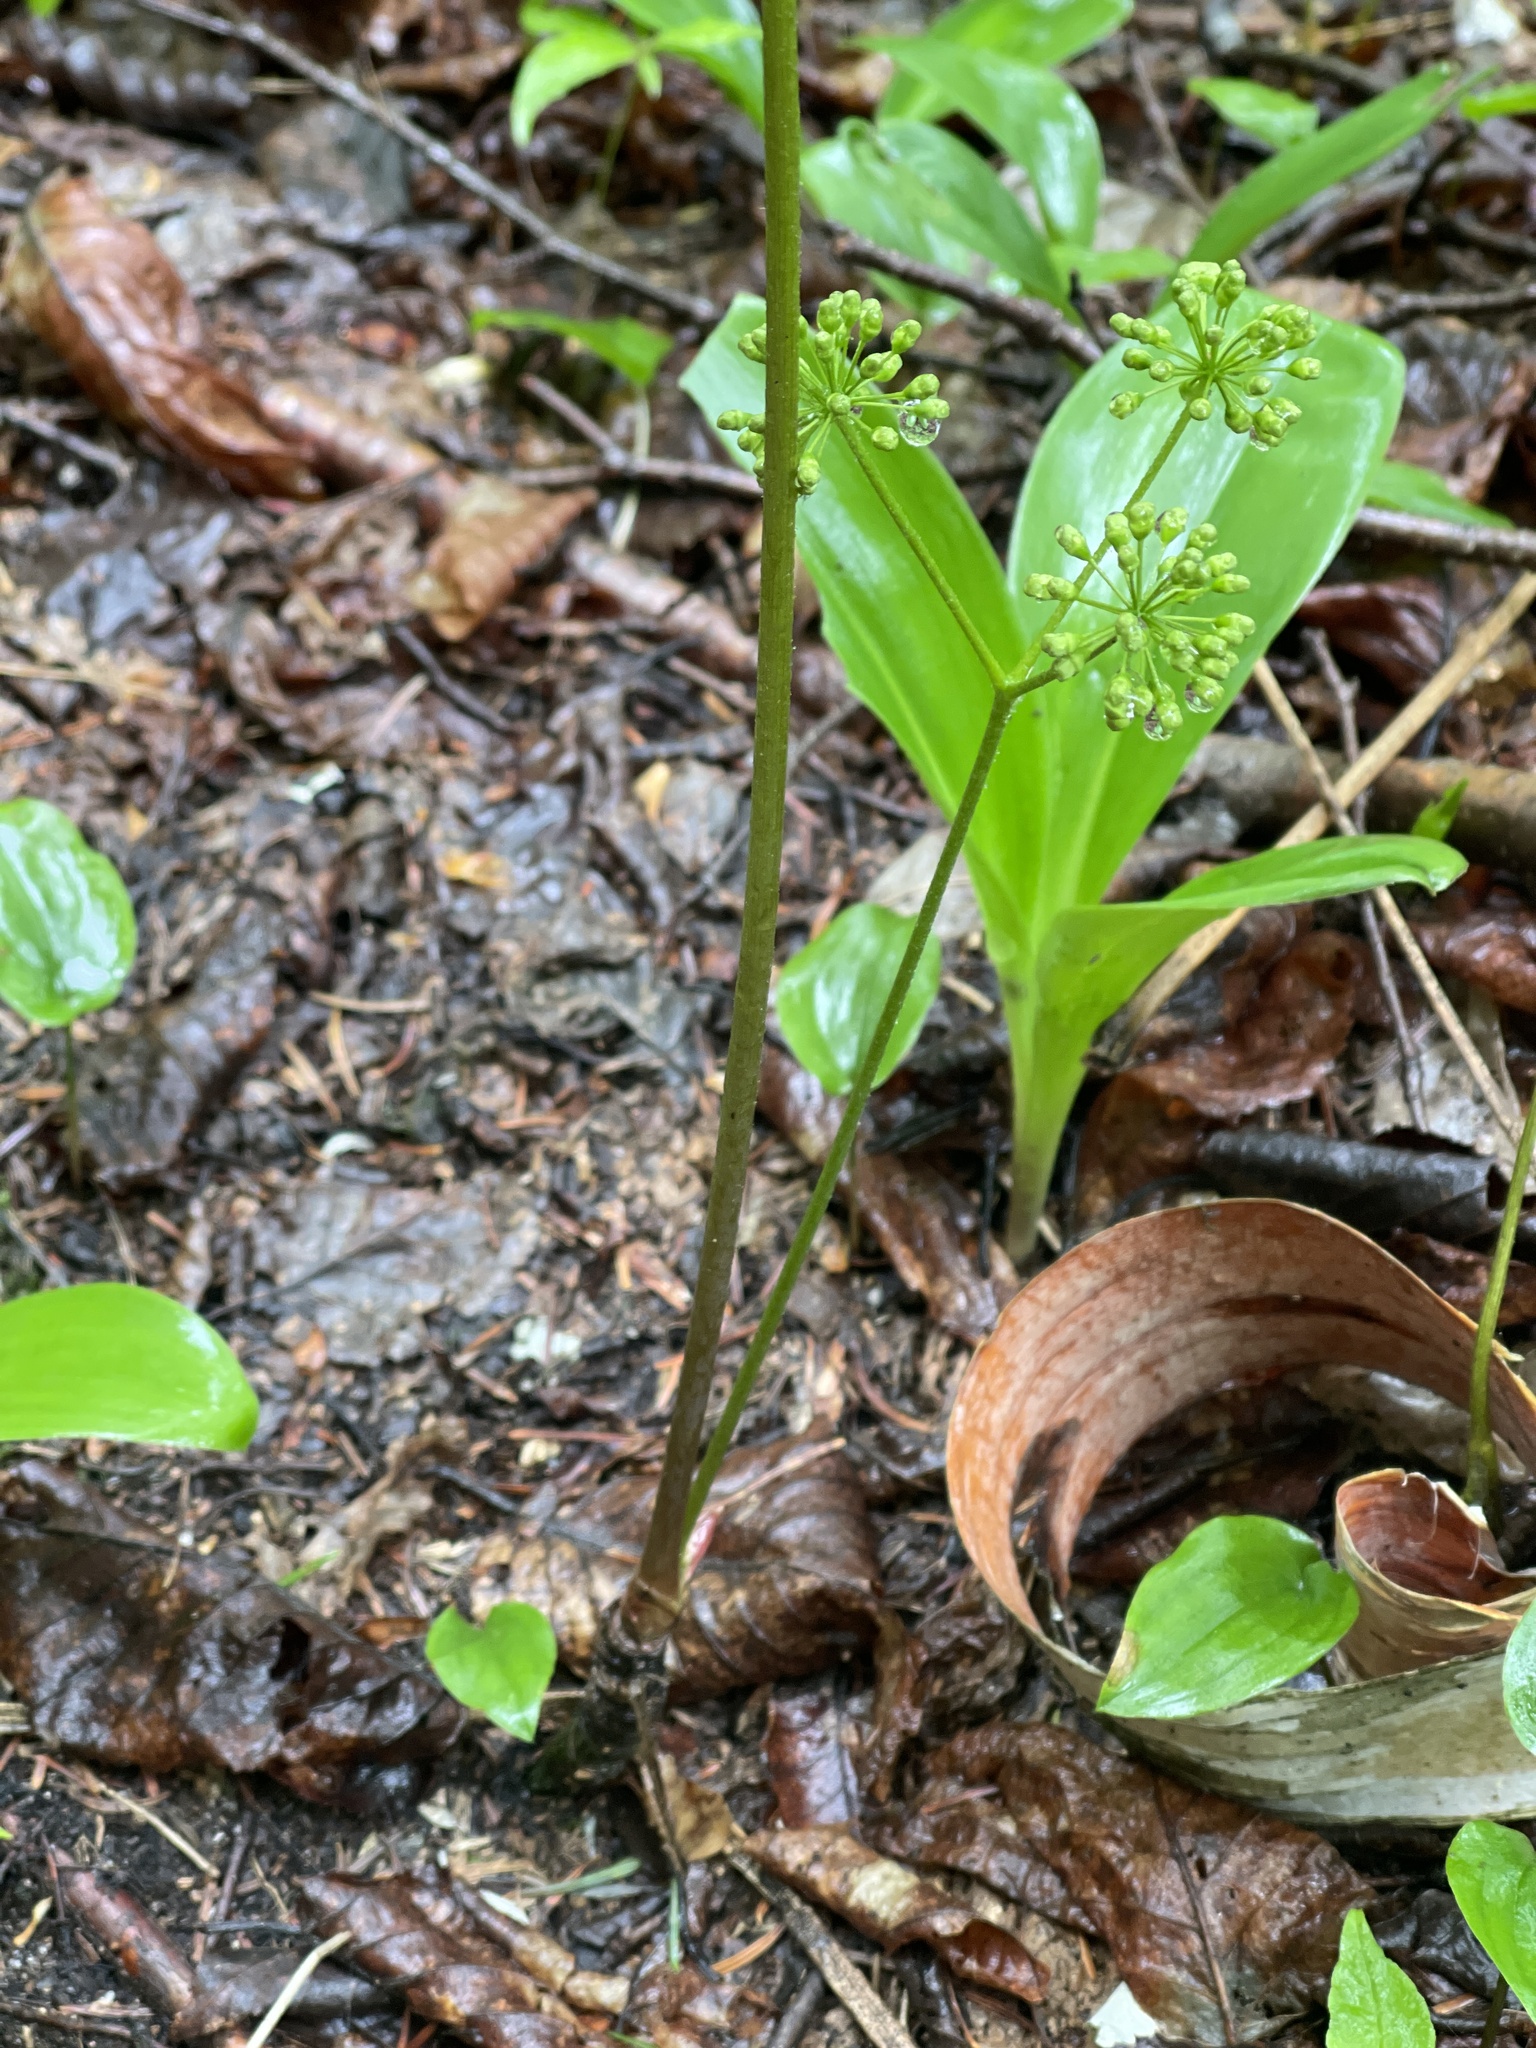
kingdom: Plantae
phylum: Tracheophyta
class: Magnoliopsida
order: Apiales
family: Araliaceae
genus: Aralia
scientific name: Aralia nudicaulis
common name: Wild sarsaparilla
